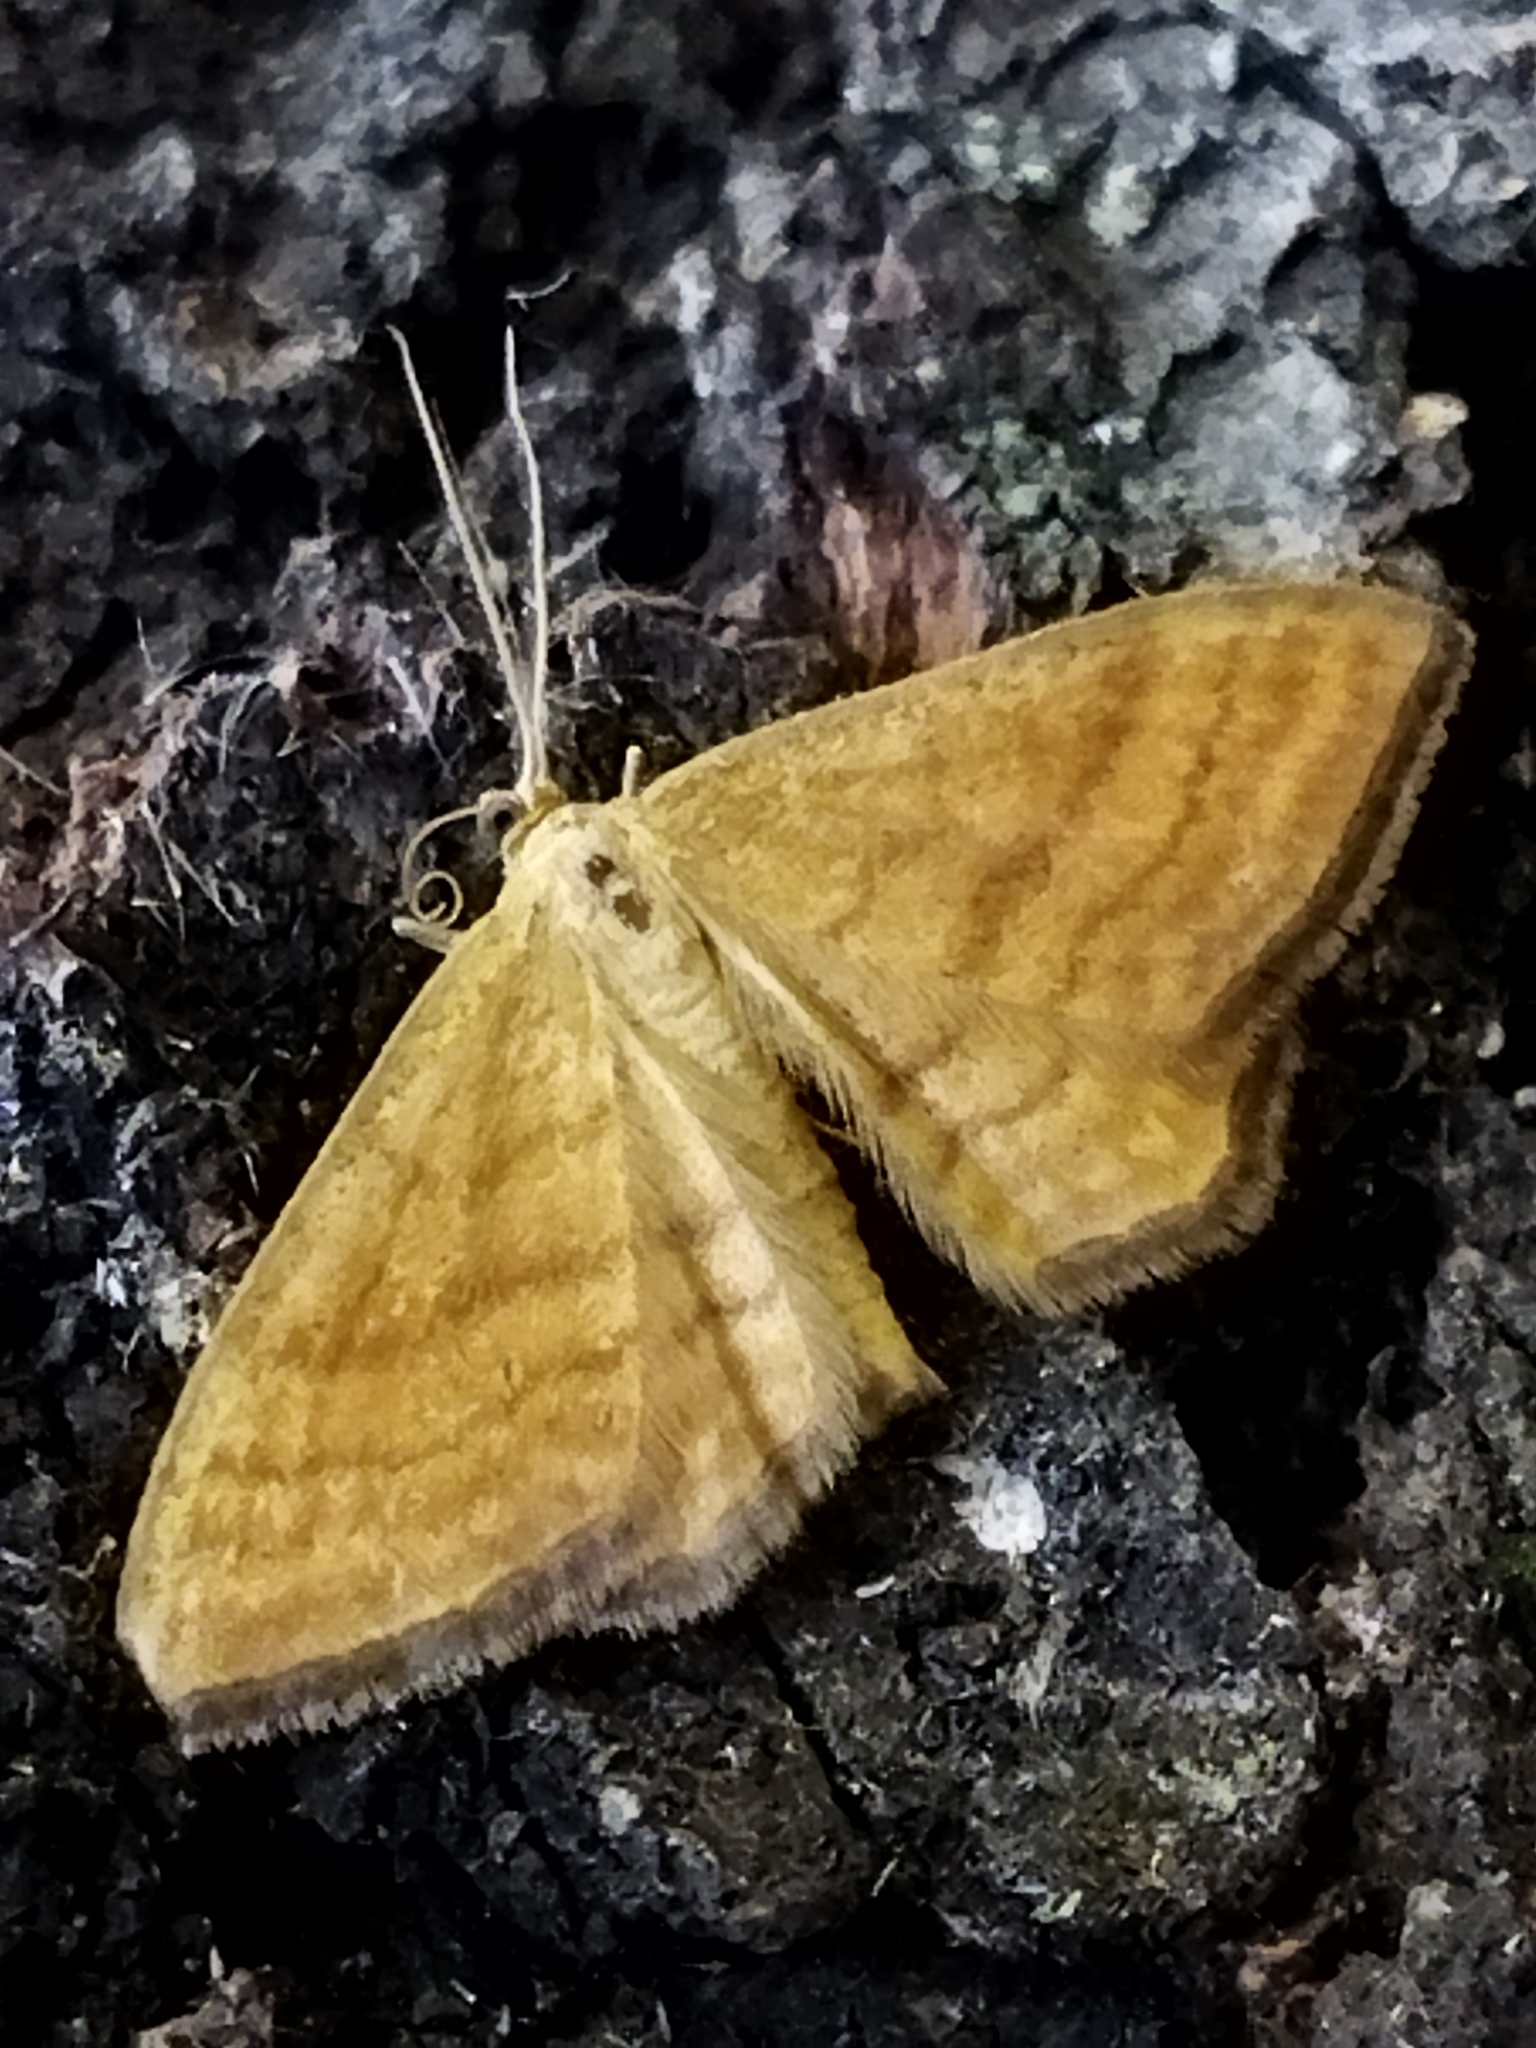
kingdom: Animalia
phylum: Arthropoda
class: Insecta
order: Lepidoptera
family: Geometridae
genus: Idaea
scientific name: Idaea ochrata
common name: Bright wave
